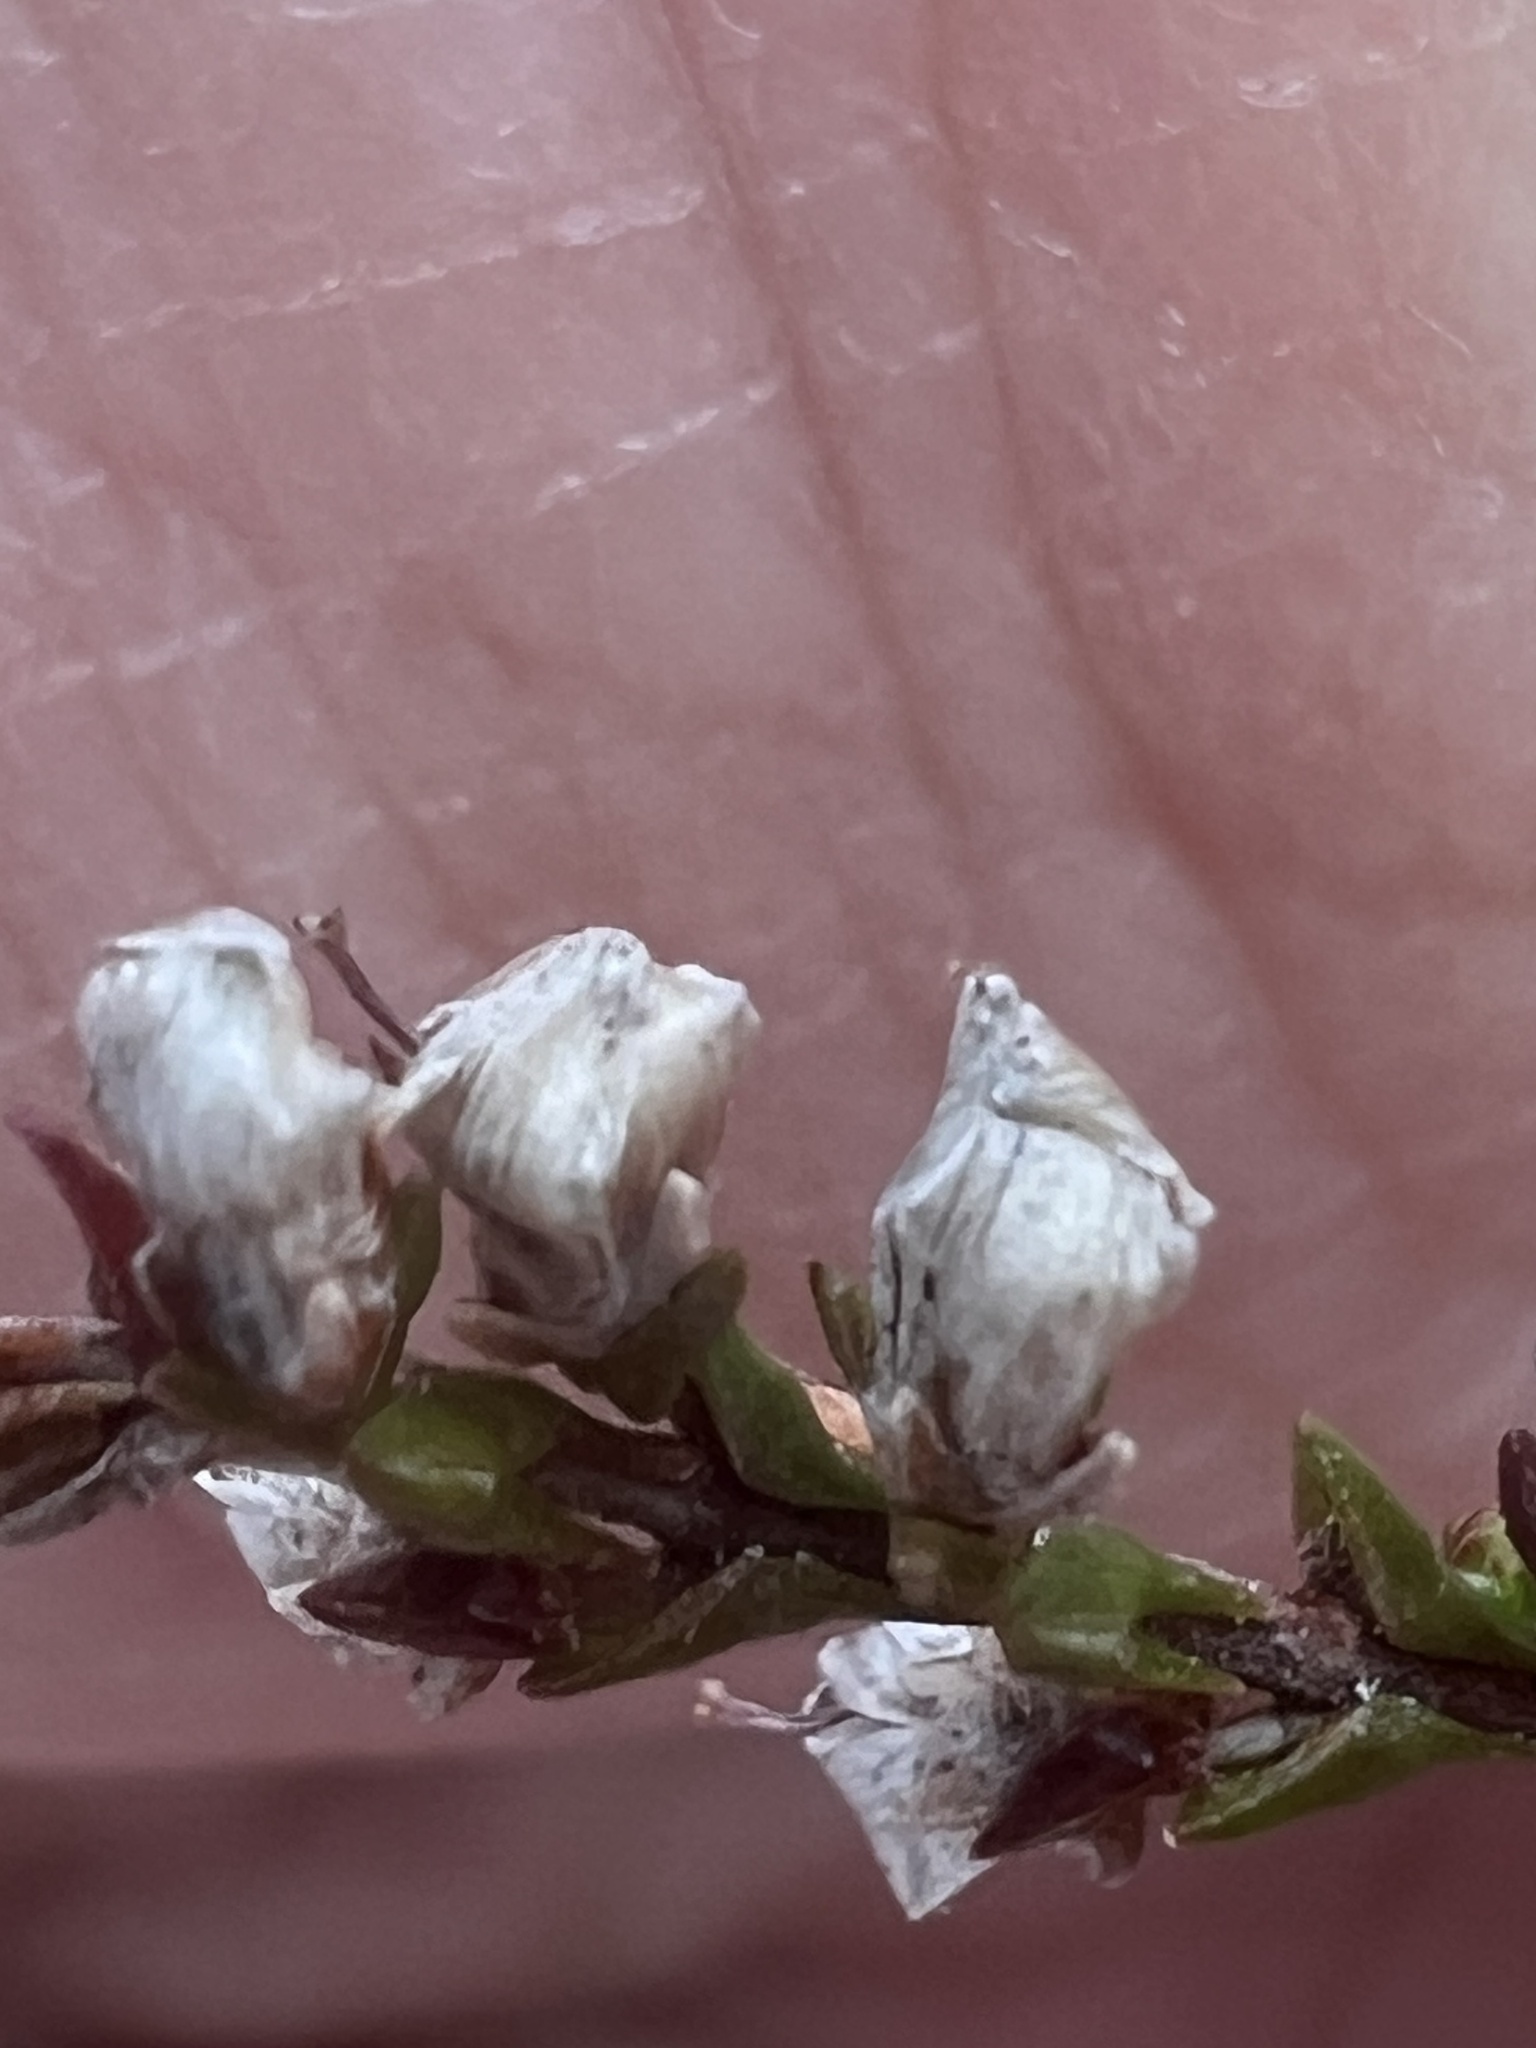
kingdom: Plantae
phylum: Tracheophyta
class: Magnoliopsida
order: Ericales
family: Ericaceae
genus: Calluna
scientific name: Calluna vulgaris
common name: Heather
